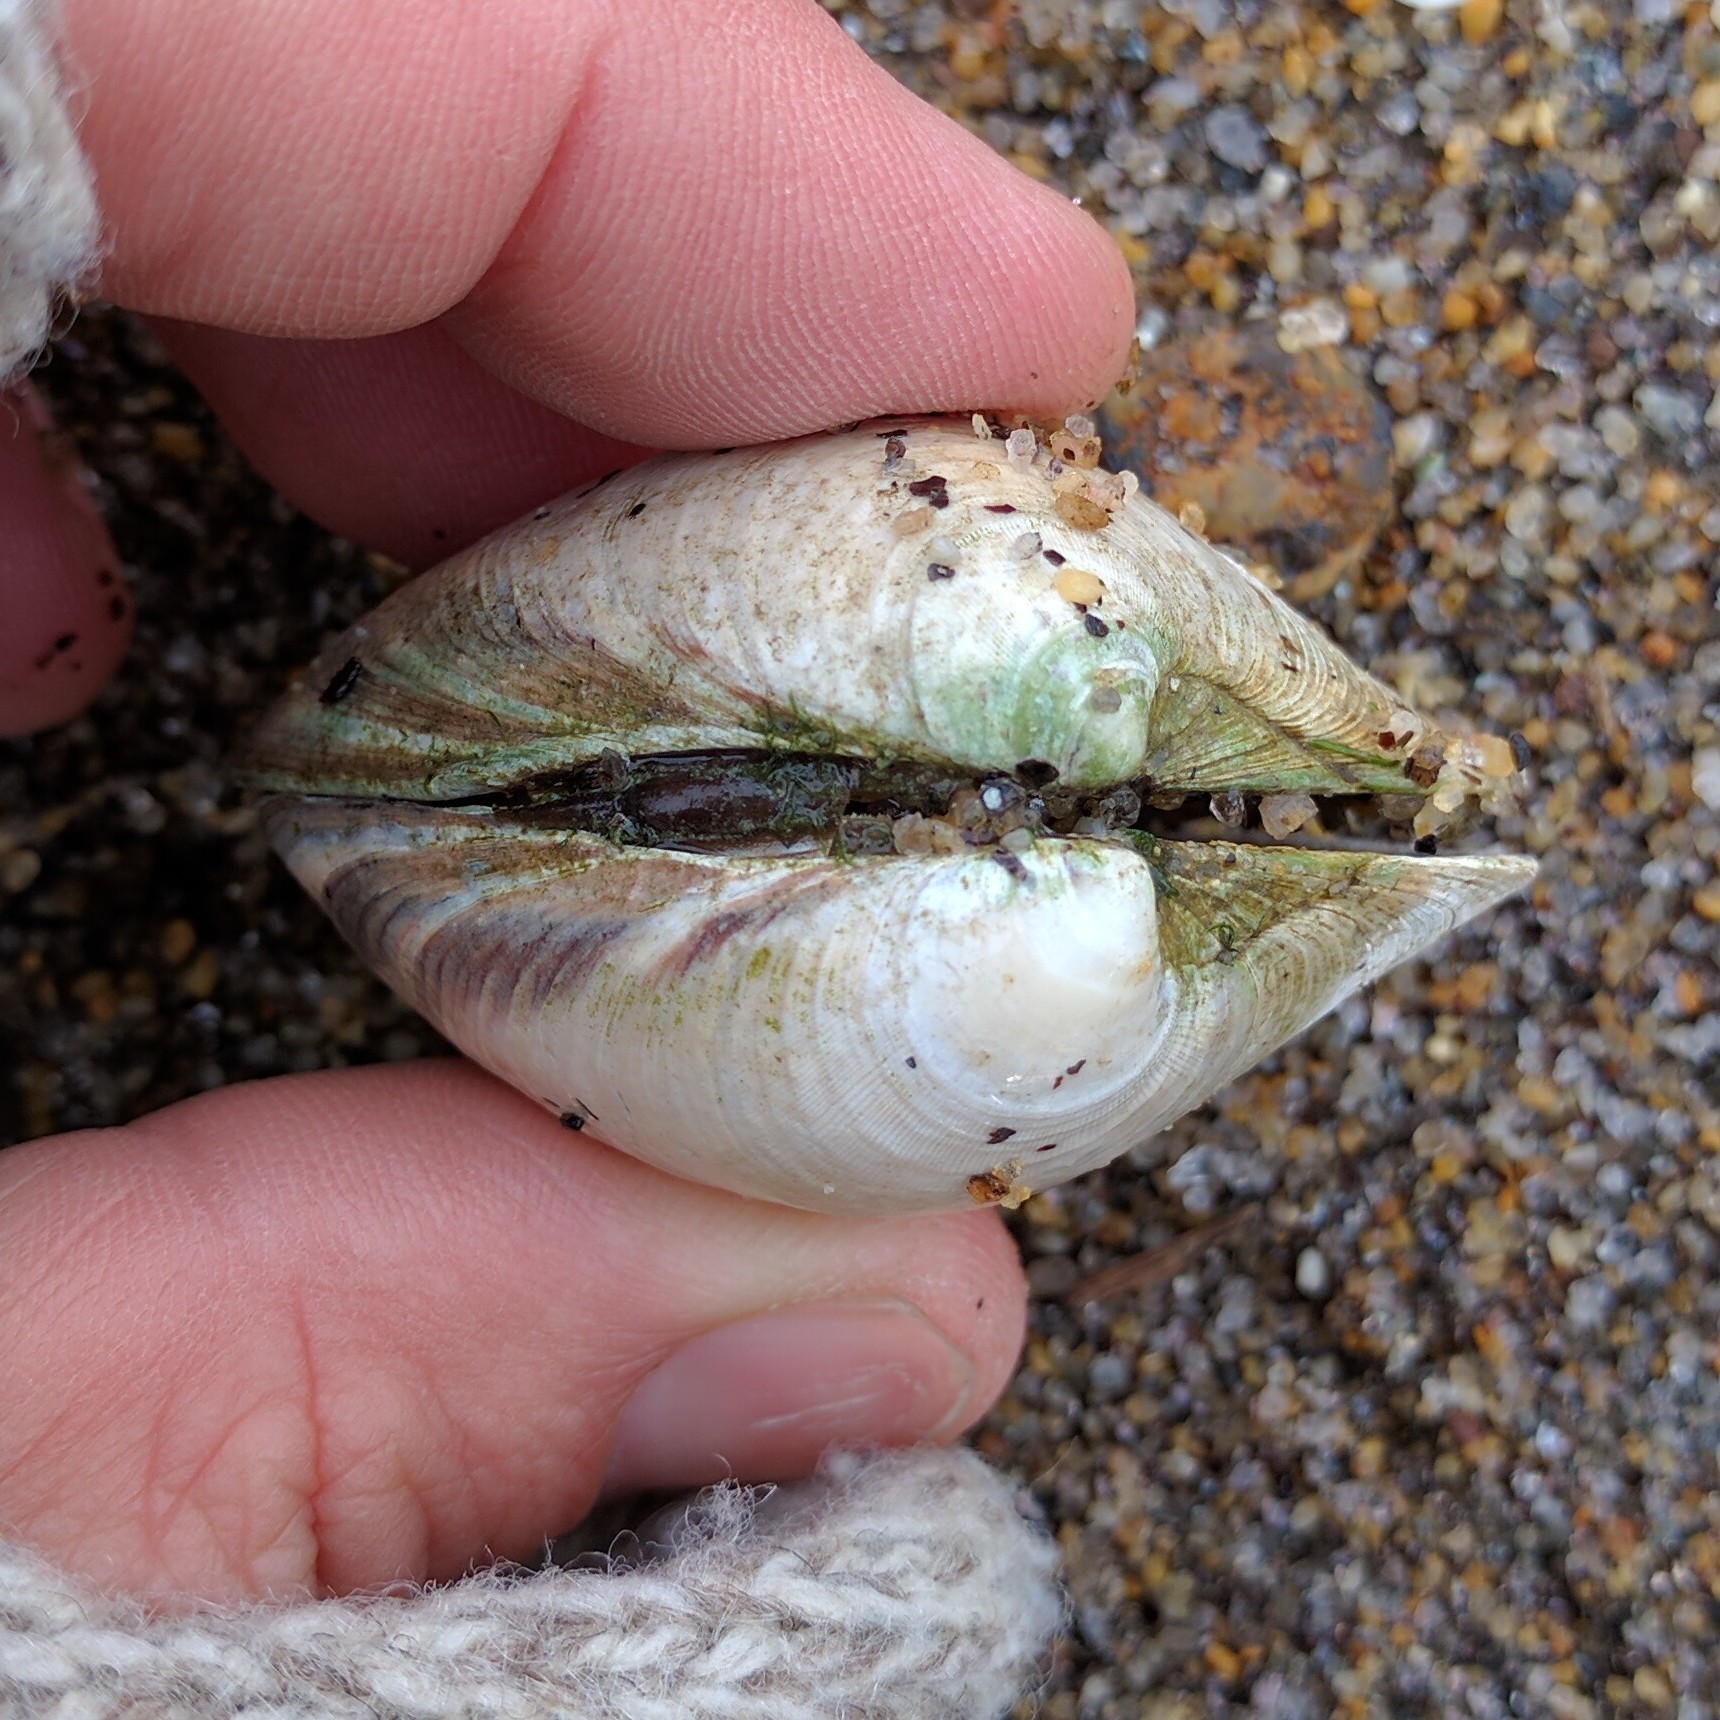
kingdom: Animalia
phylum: Mollusca
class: Bivalvia
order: Venerida
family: Veneridae
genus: Mercenaria
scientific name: Mercenaria mercenaria
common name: American hard-shelled clam
